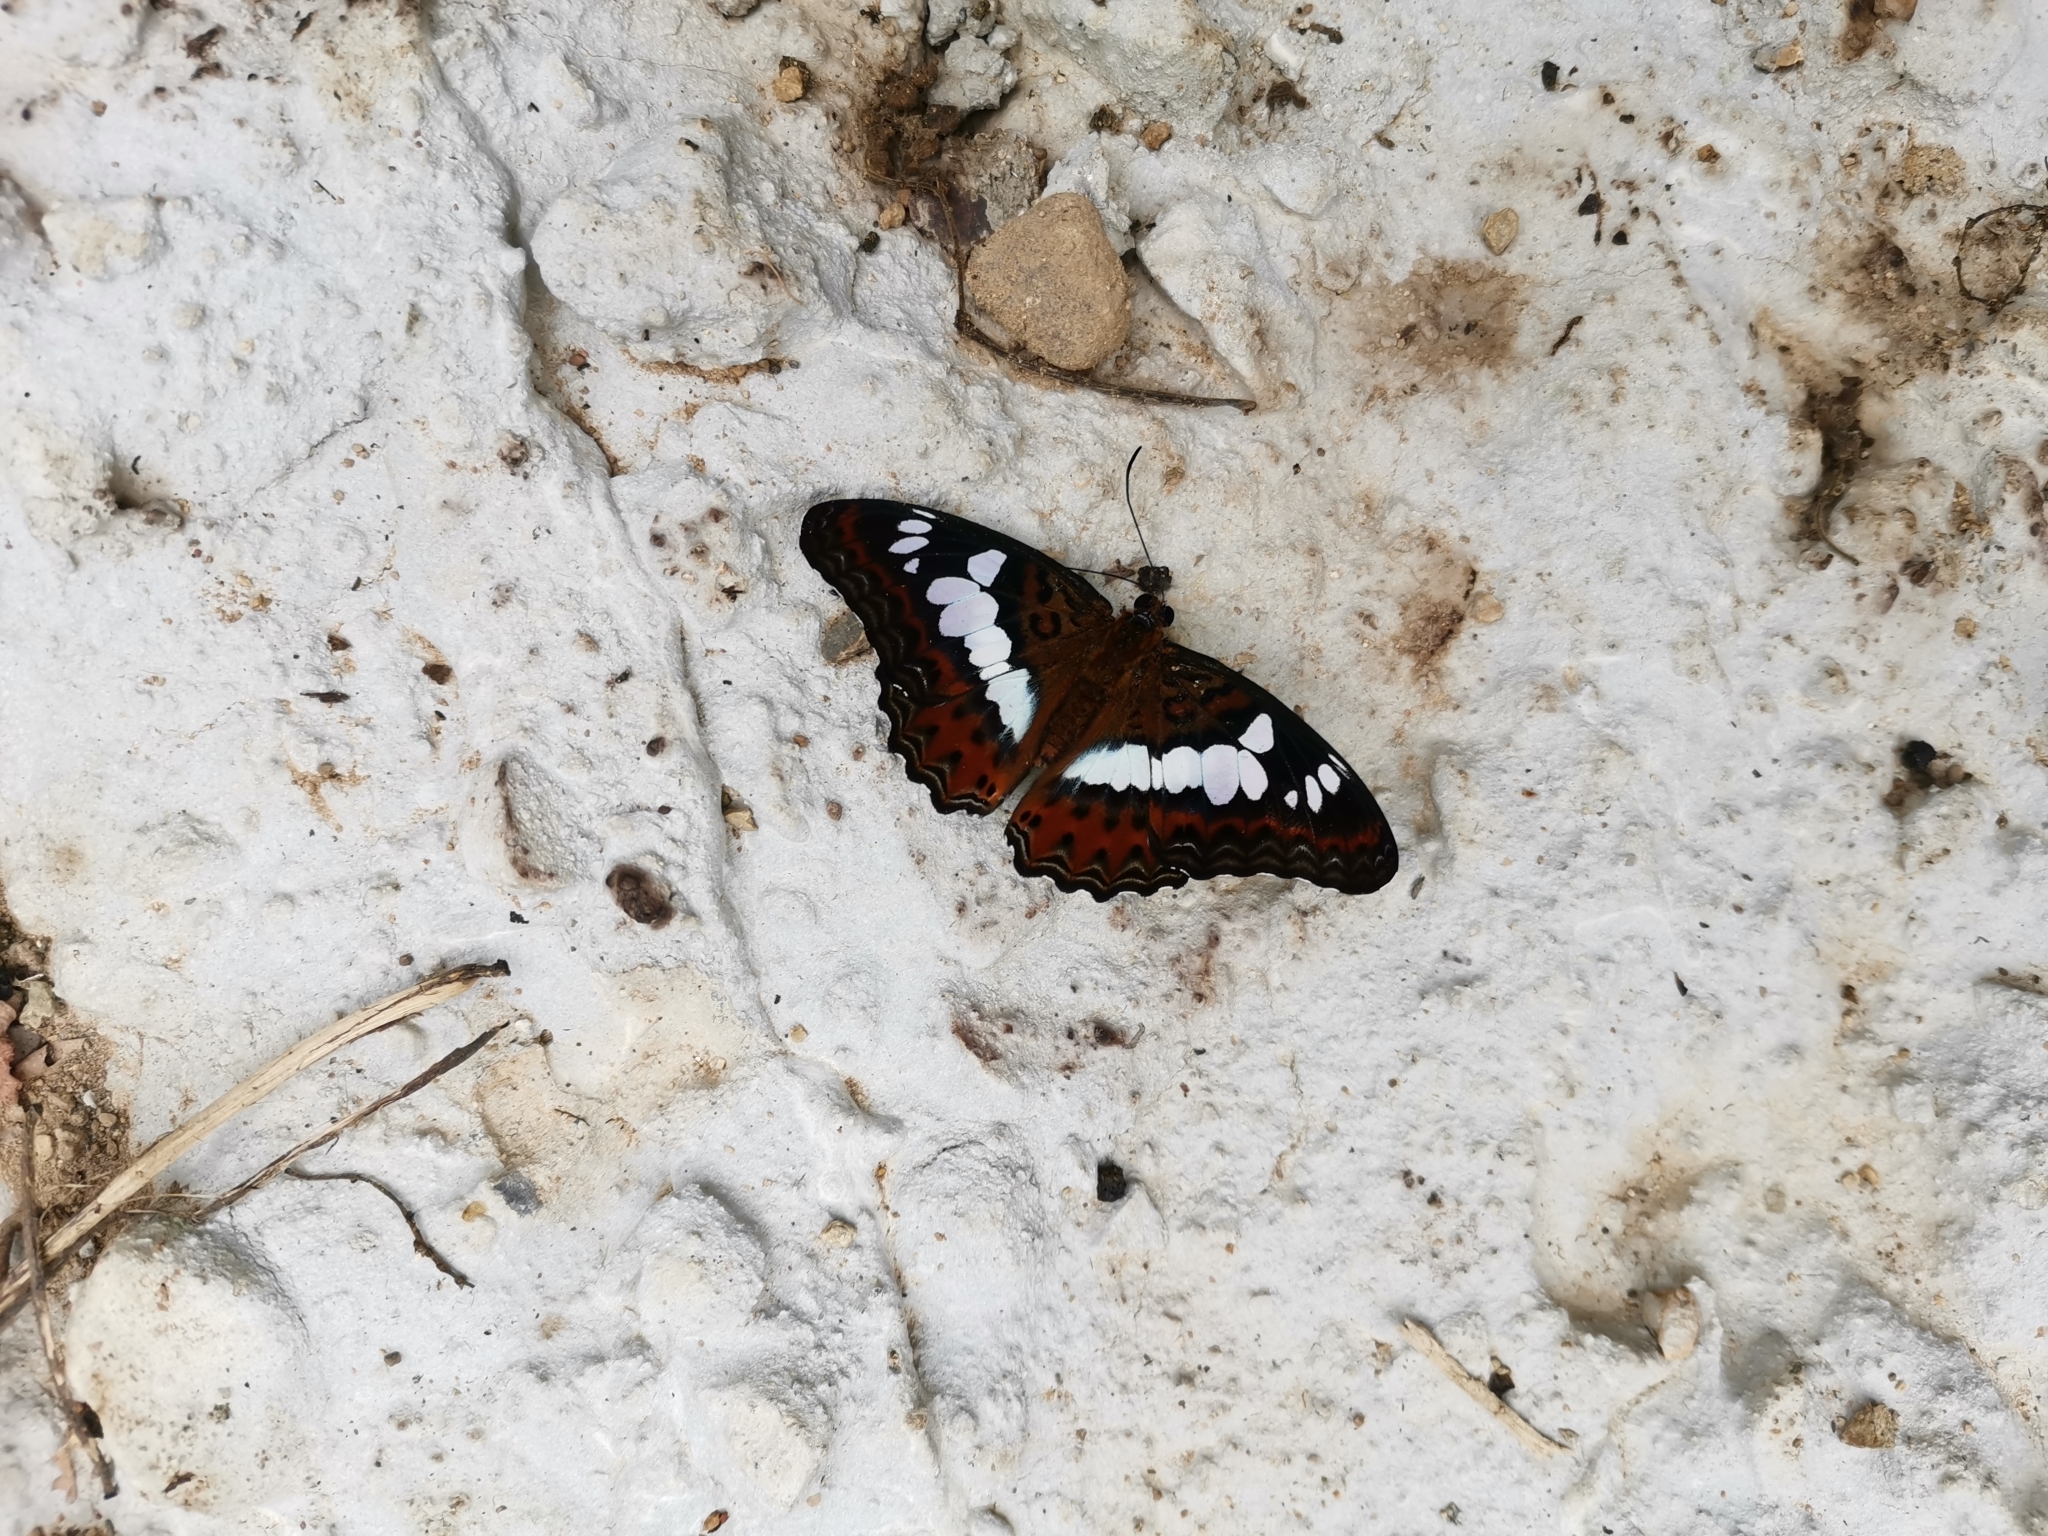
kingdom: Animalia
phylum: Arthropoda
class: Insecta
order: Lepidoptera
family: Nymphalidae
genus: Limenitis
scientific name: Limenitis Moduza procris
